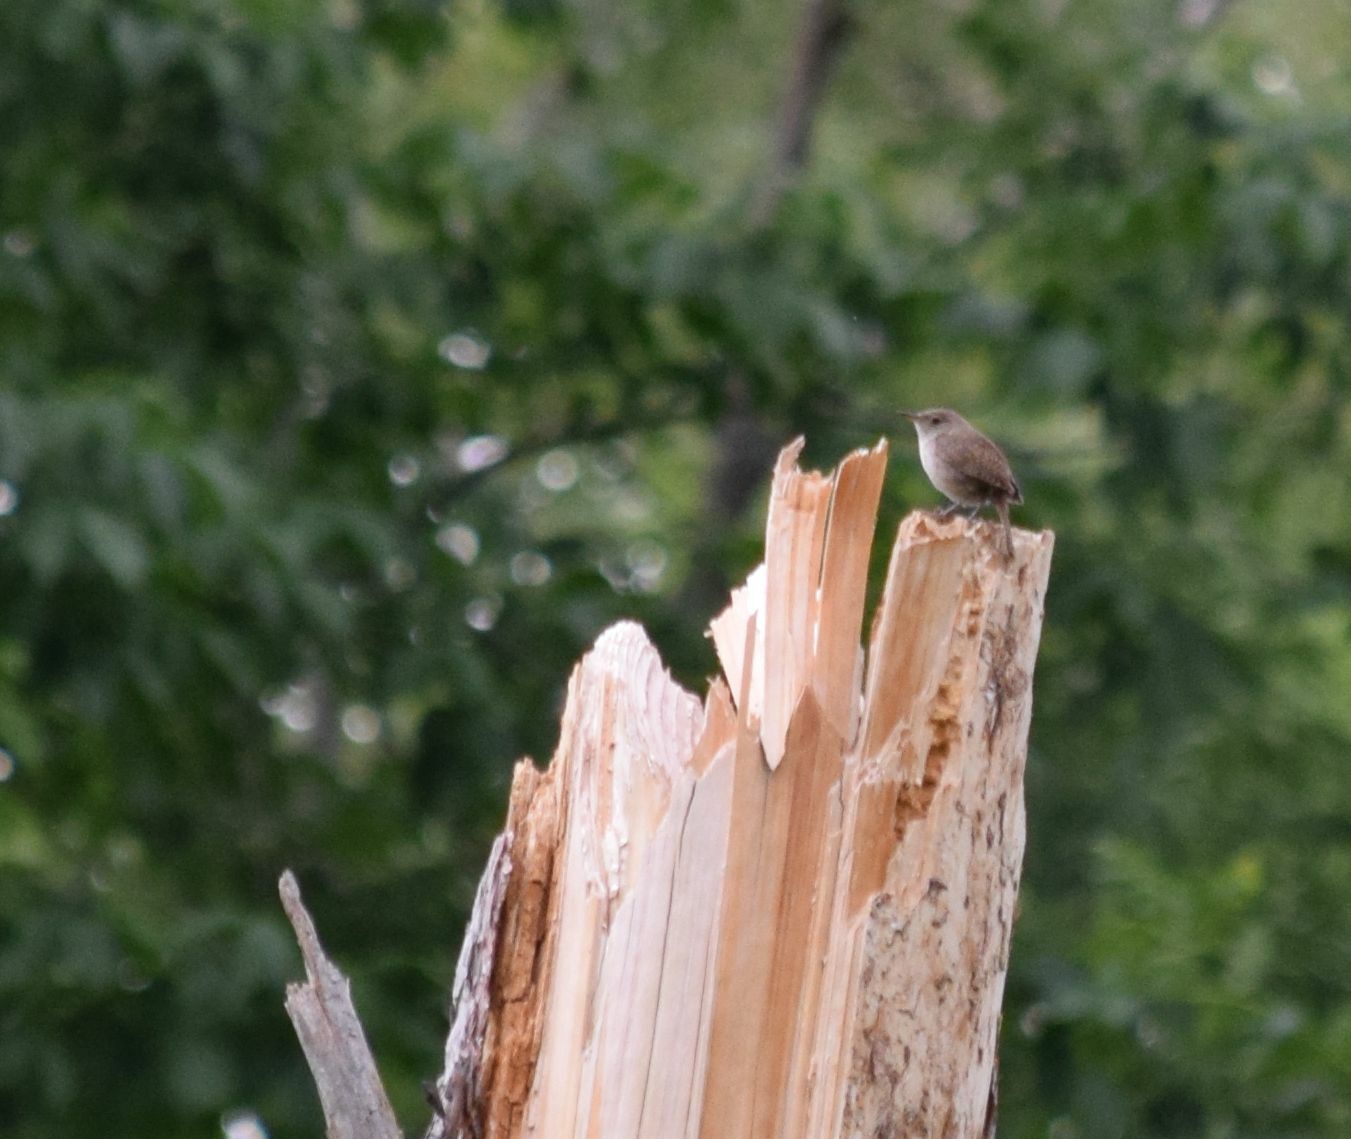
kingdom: Animalia
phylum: Chordata
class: Aves
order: Passeriformes
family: Troglodytidae
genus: Troglodytes
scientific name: Troglodytes aedon
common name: House wren
